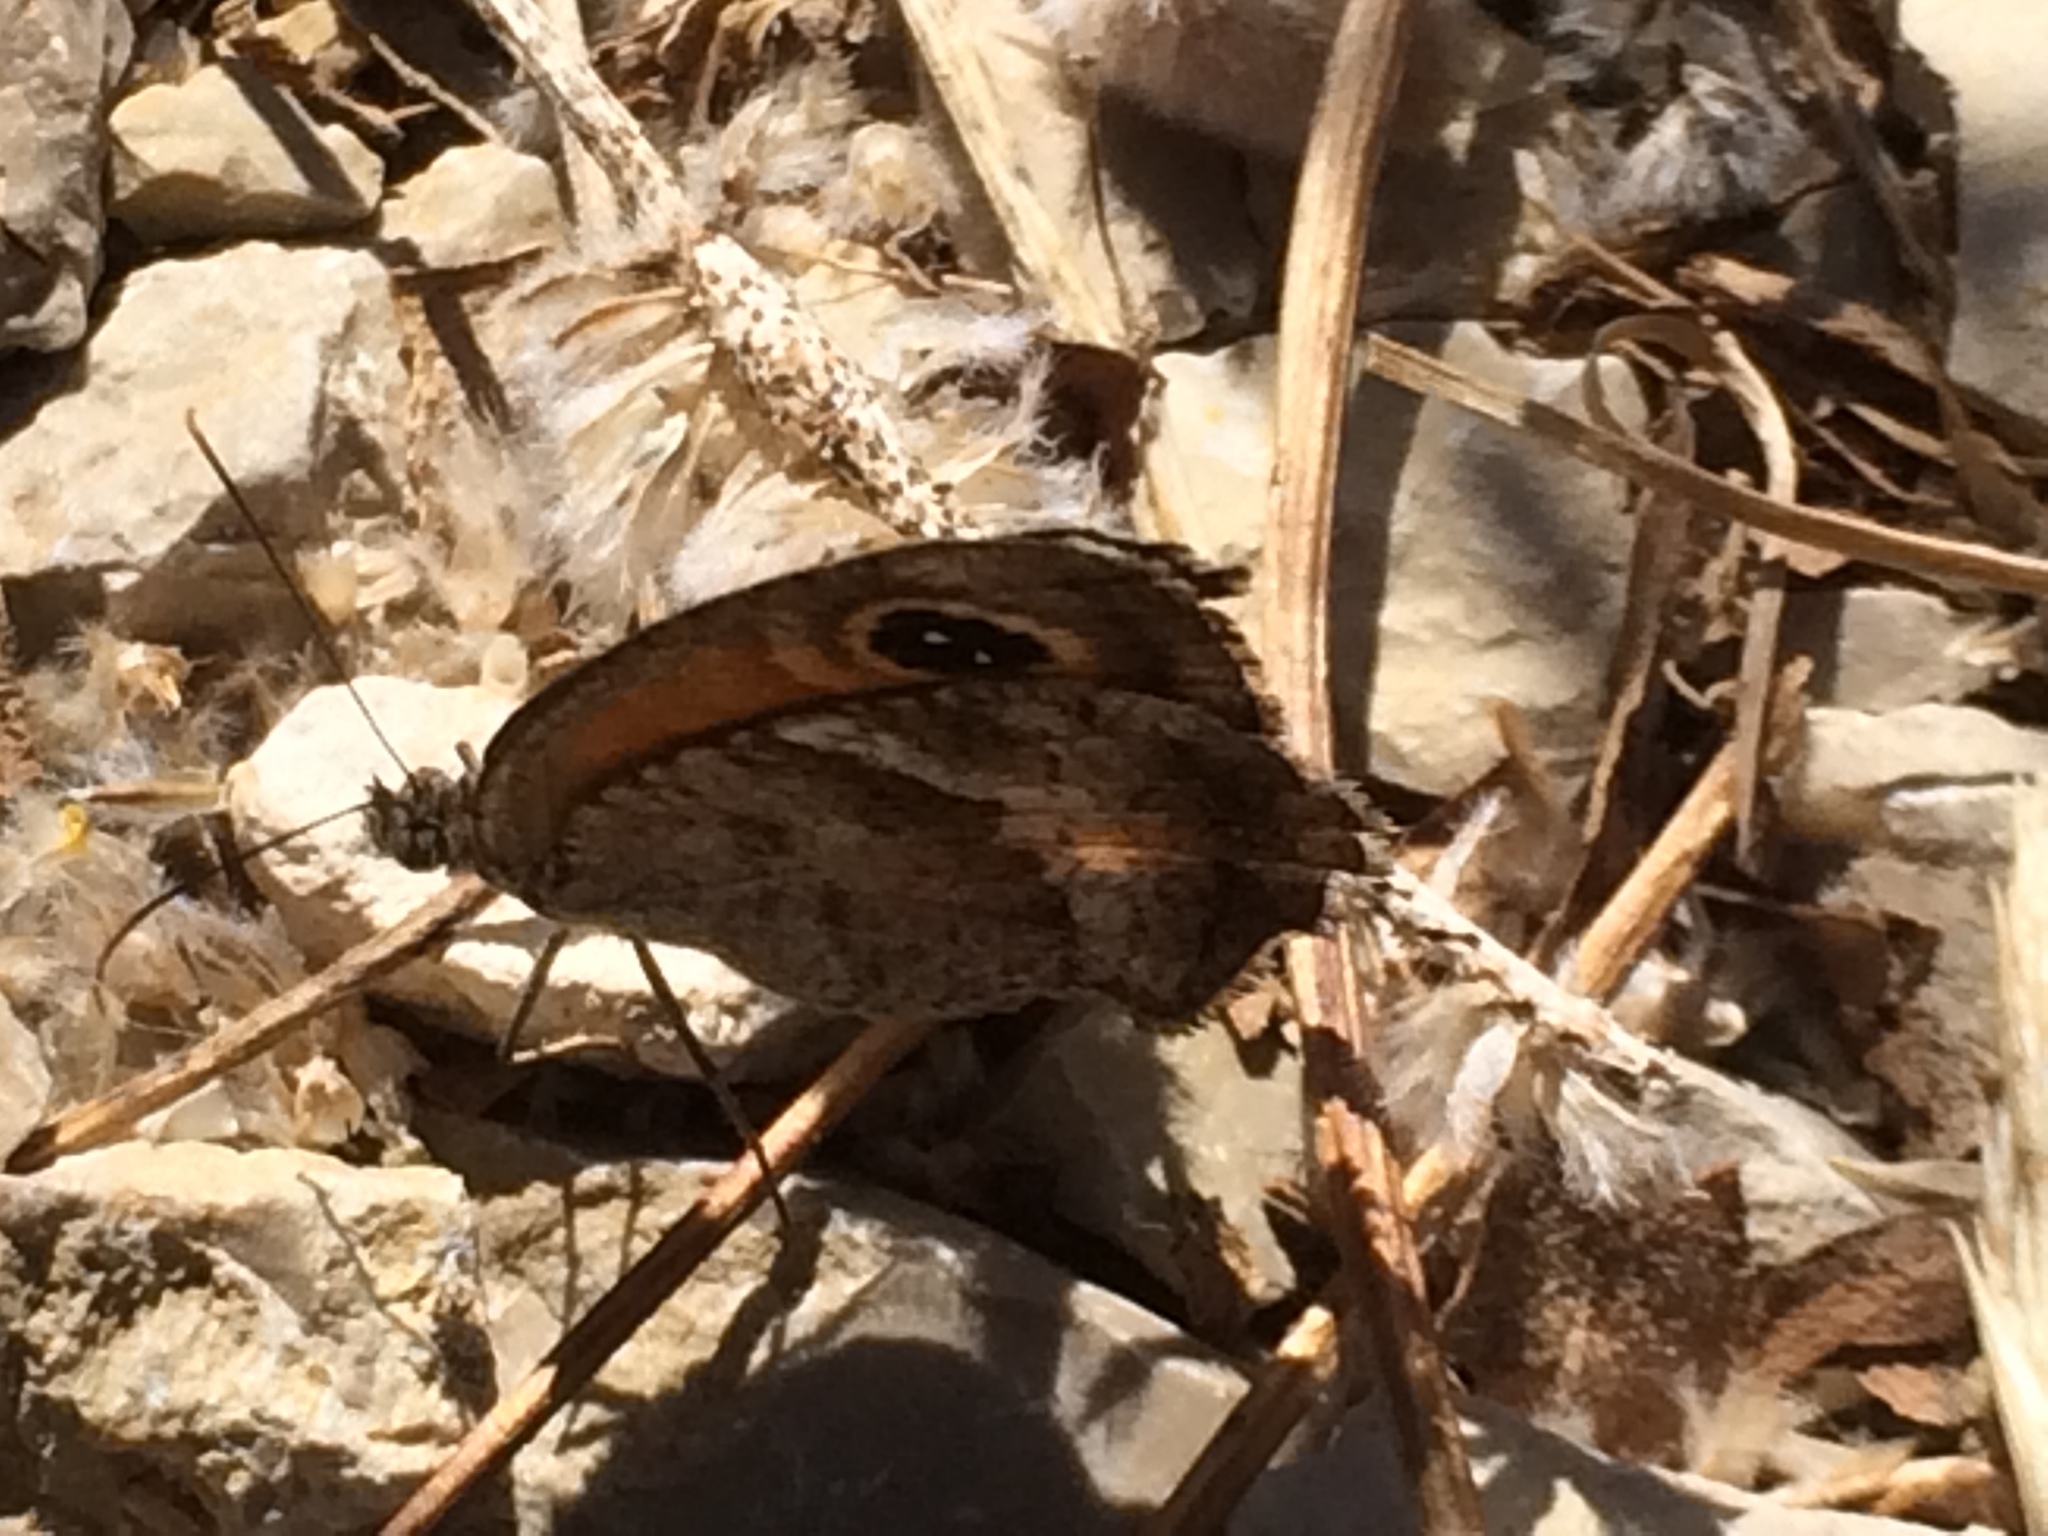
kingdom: Animalia
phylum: Arthropoda
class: Insecta
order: Lepidoptera
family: Nymphalidae
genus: Pyronia
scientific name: Pyronia cecilia
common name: Southern gatekeeper
